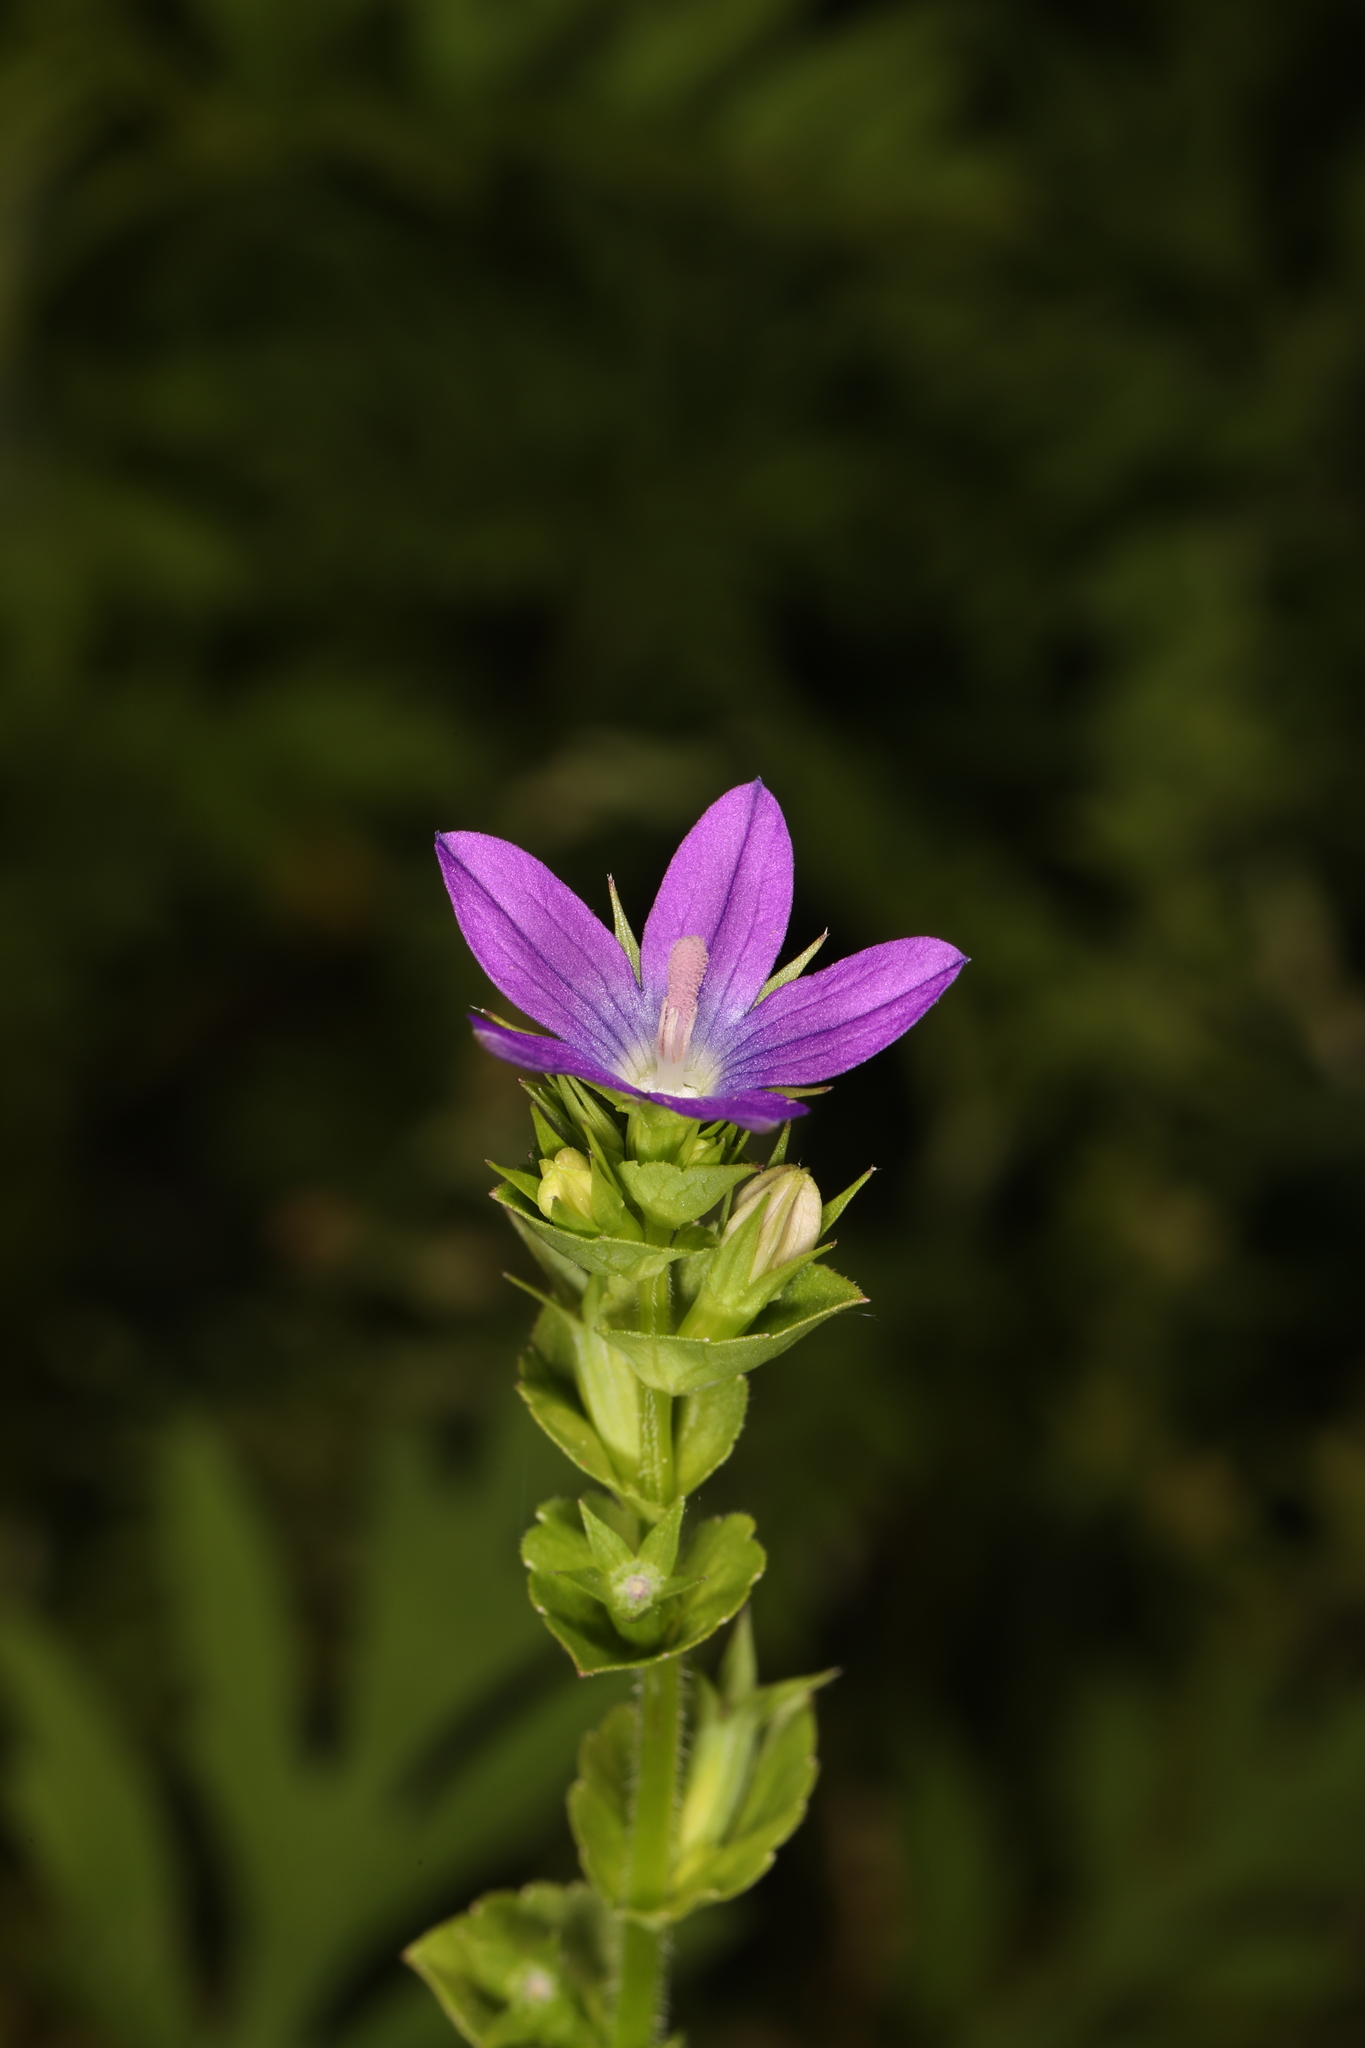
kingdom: Plantae
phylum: Tracheophyta
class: Magnoliopsida
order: Asterales
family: Campanulaceae
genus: Triodanis
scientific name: Triodanis perfoliata
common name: Clasping venus' looking-glass
